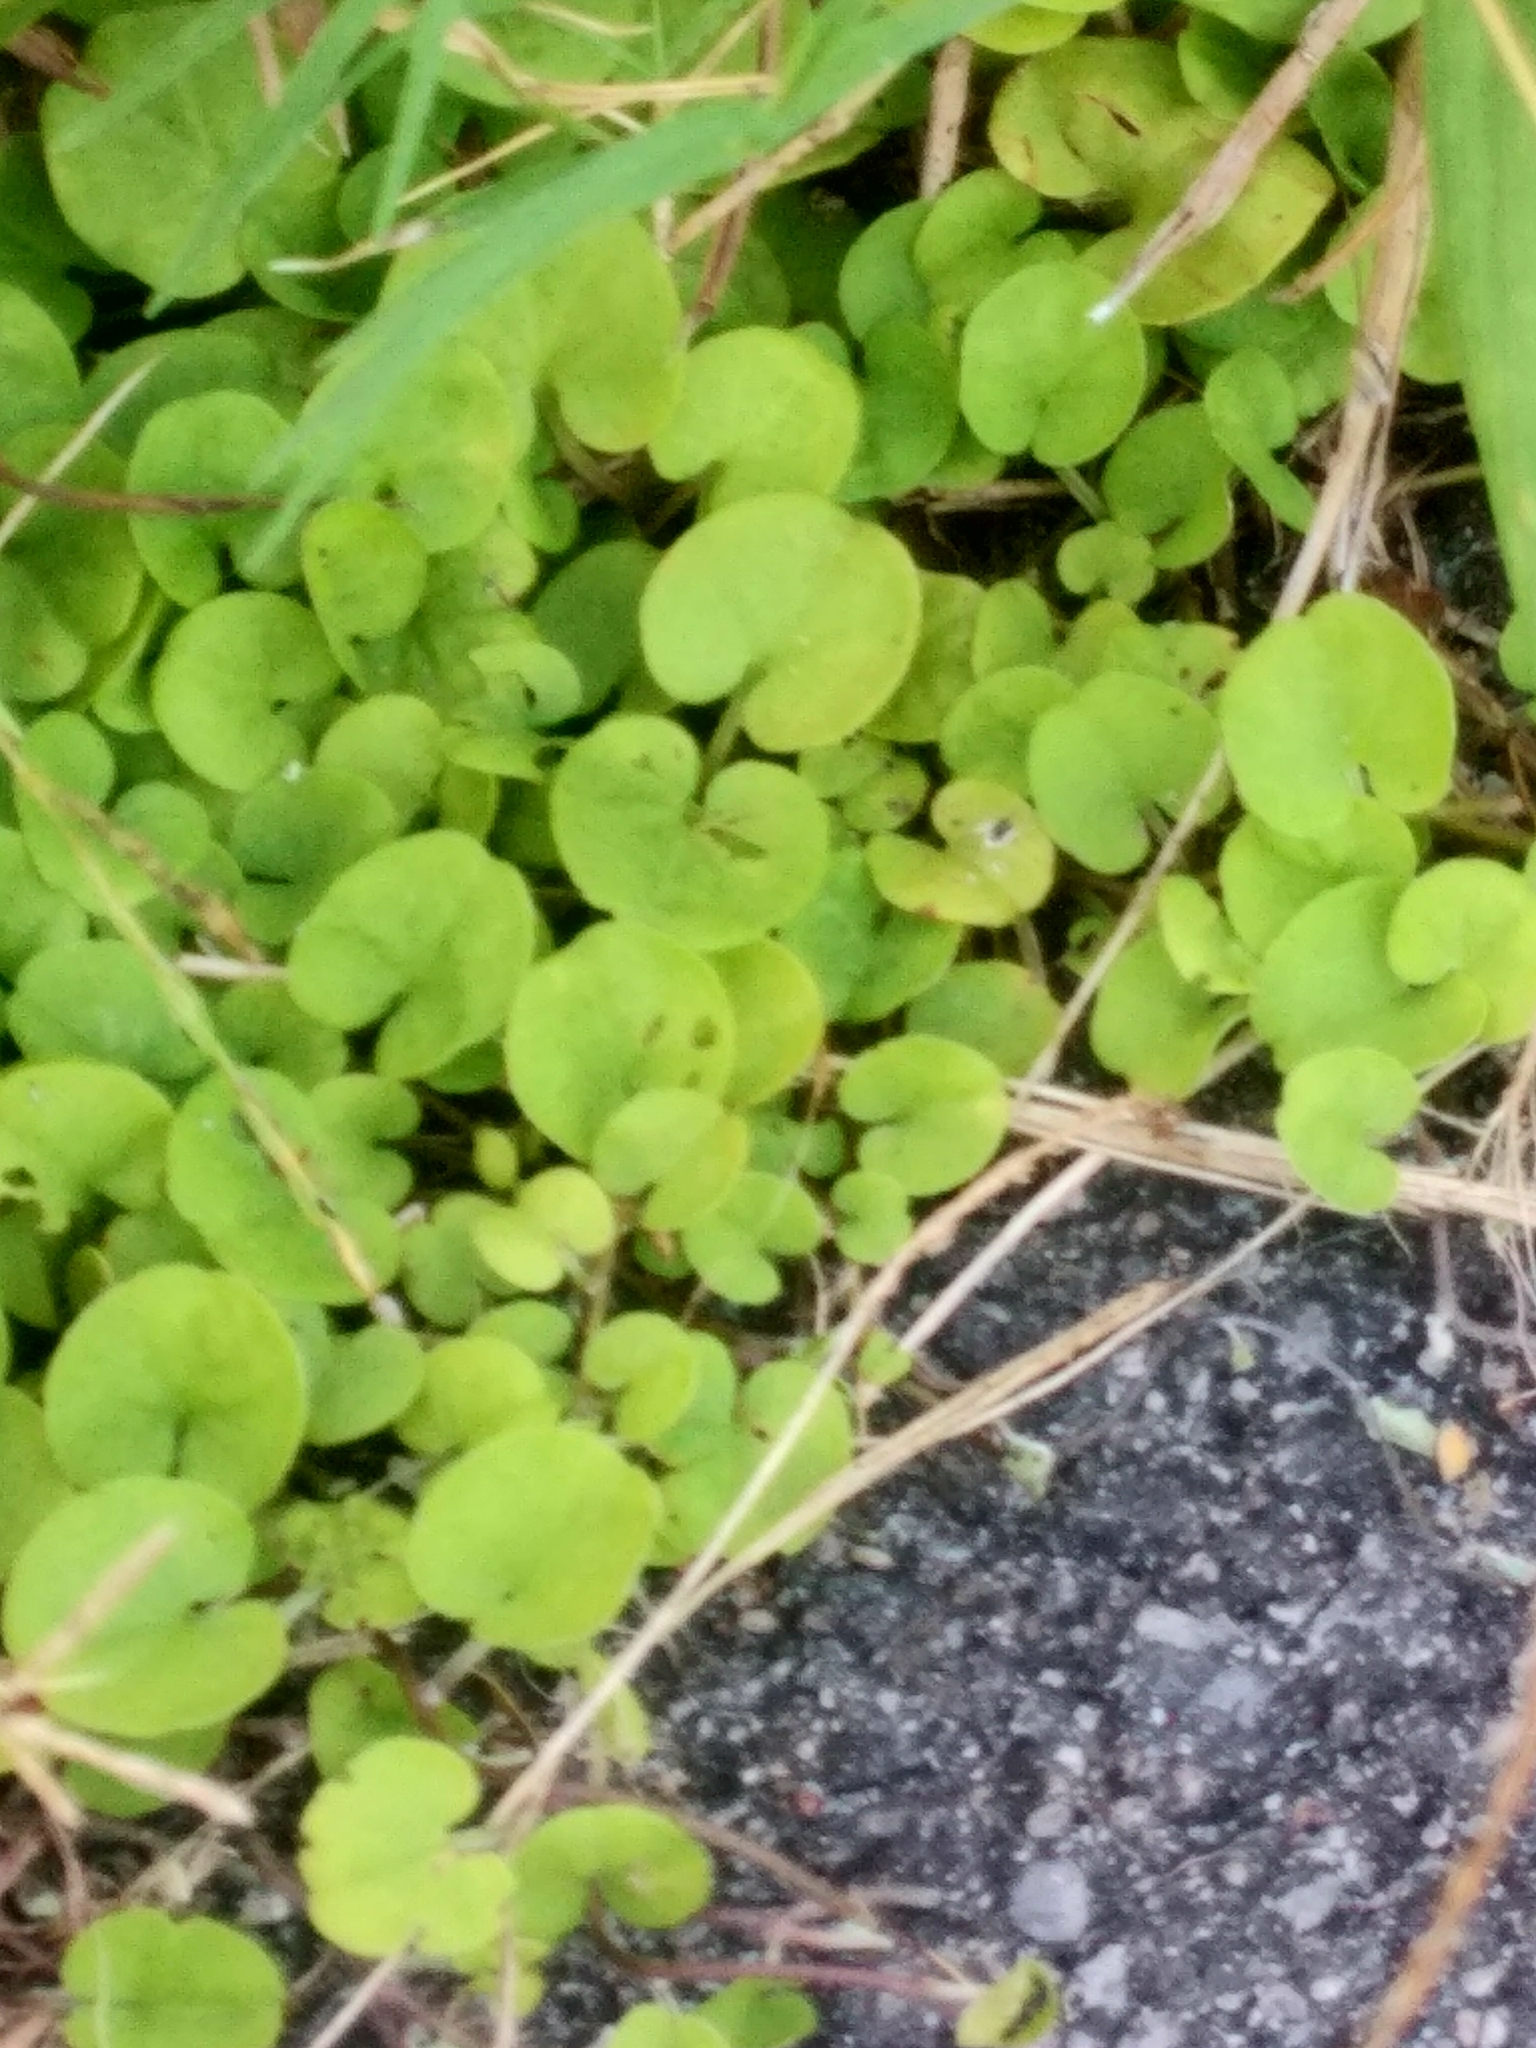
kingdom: Plantae
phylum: Tracheophyta
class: Magnoliopsida
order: Solanales
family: Convolvulaceae
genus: Dichondra
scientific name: Dichondra carolinensis
